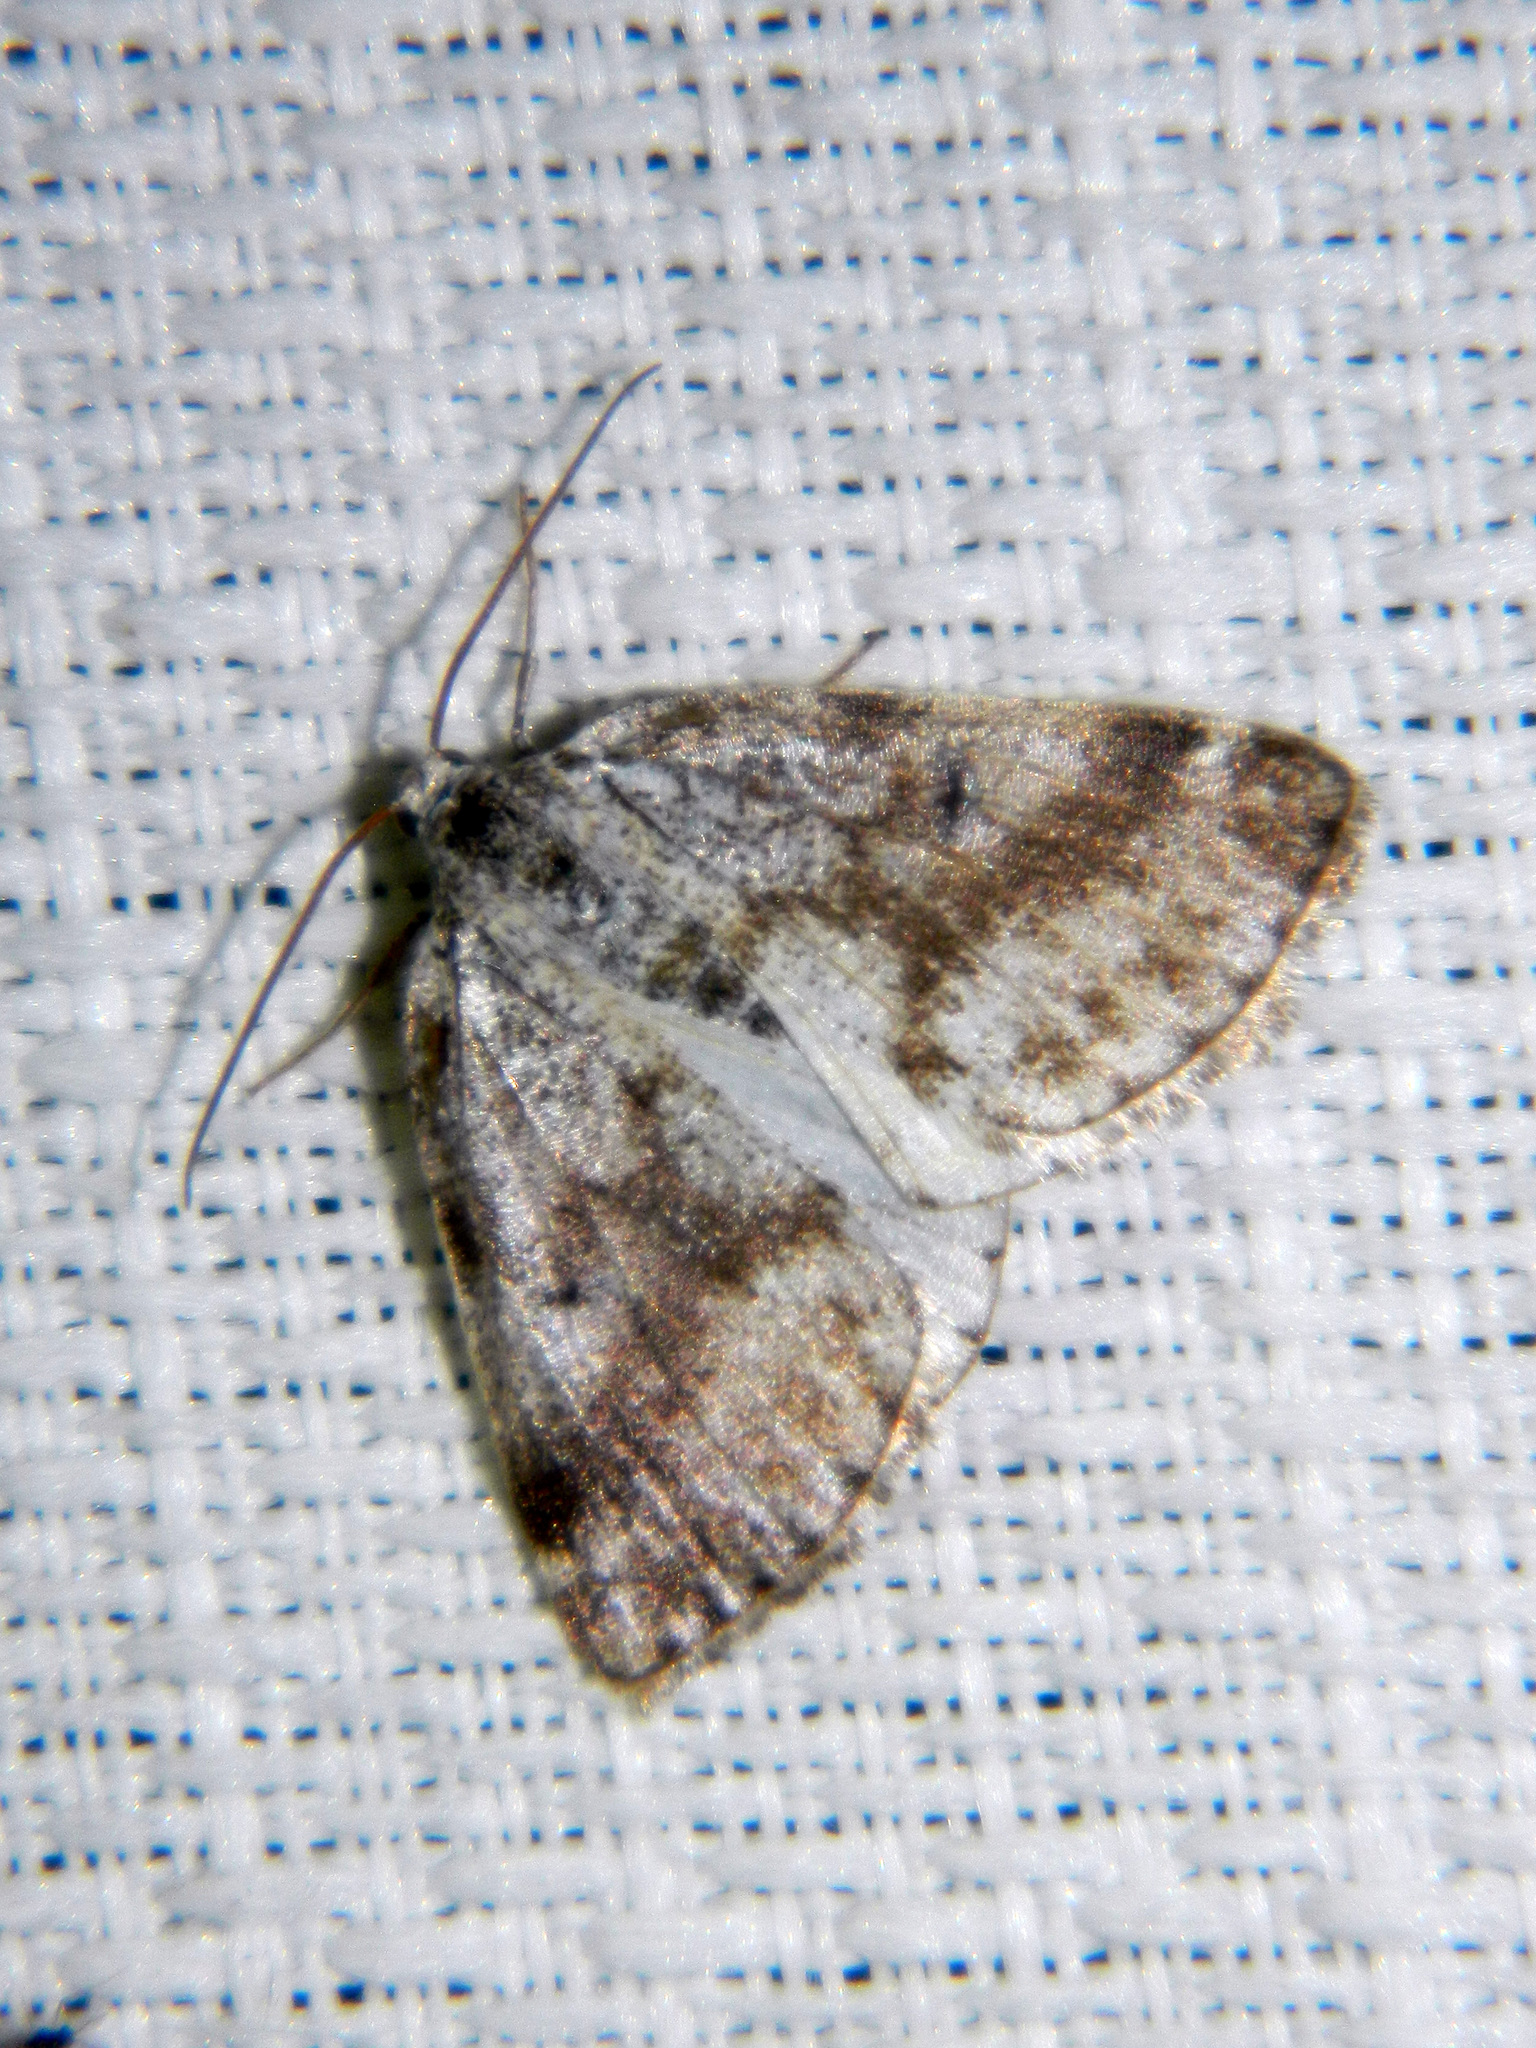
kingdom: Animalia
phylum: Arthropoda
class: Insecta
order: Lepidoptera
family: Geometridae
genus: Lomographa
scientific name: Lomographa semiclarata
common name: Bluish spring moth
